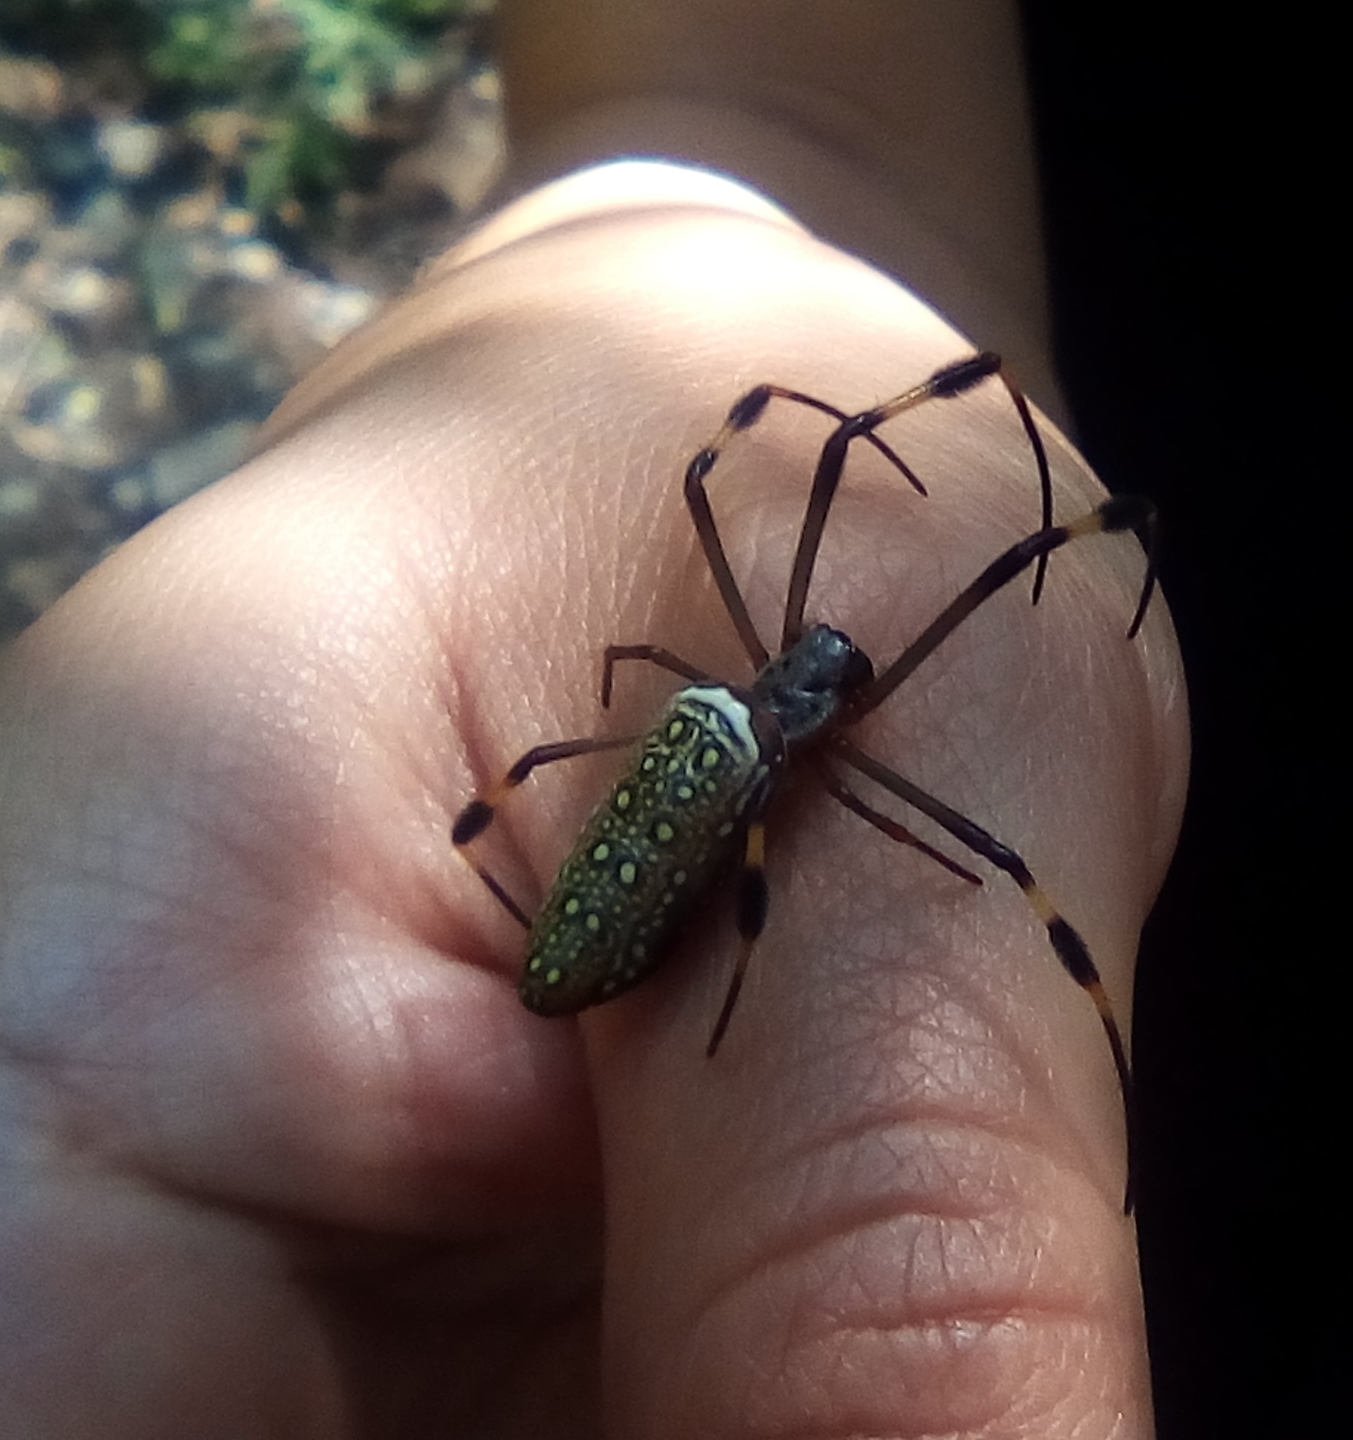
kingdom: Animalia
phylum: Arthropoda
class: Arachnida
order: Araneae
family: Araneidae
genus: Trichonephila
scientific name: Trichonephila clavipes
